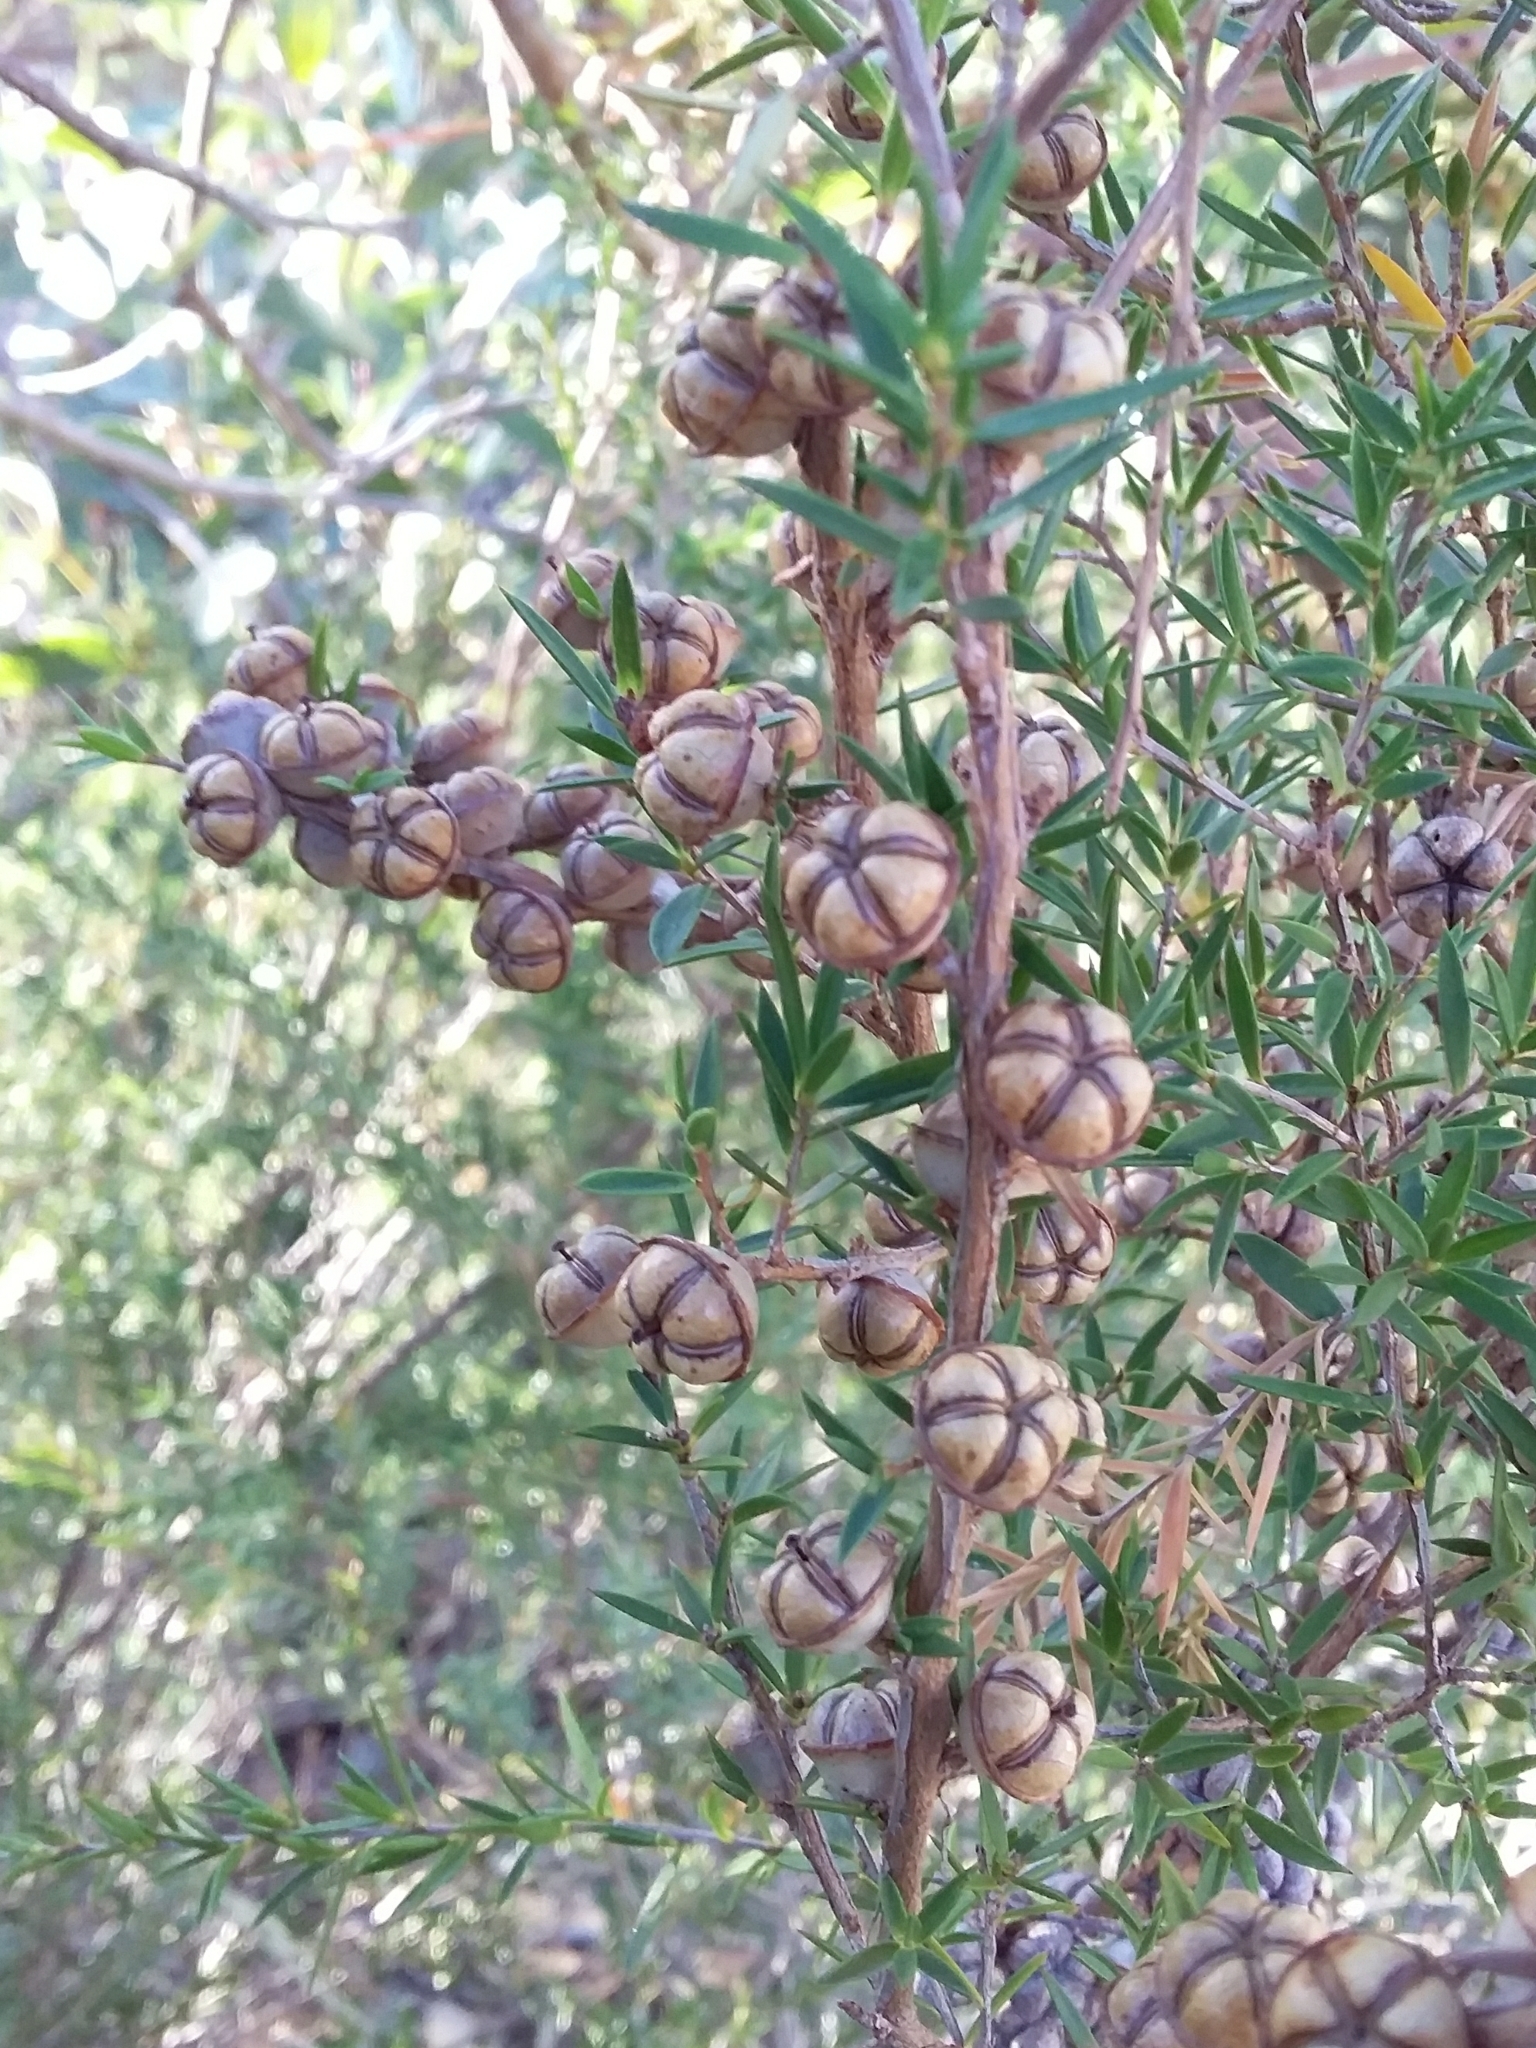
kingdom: Plantae
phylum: Tracheophyta
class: Magnoliopsida
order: Myrtales
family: Myrtaceae
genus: Leptospermum
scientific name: Leptospermum continentale
